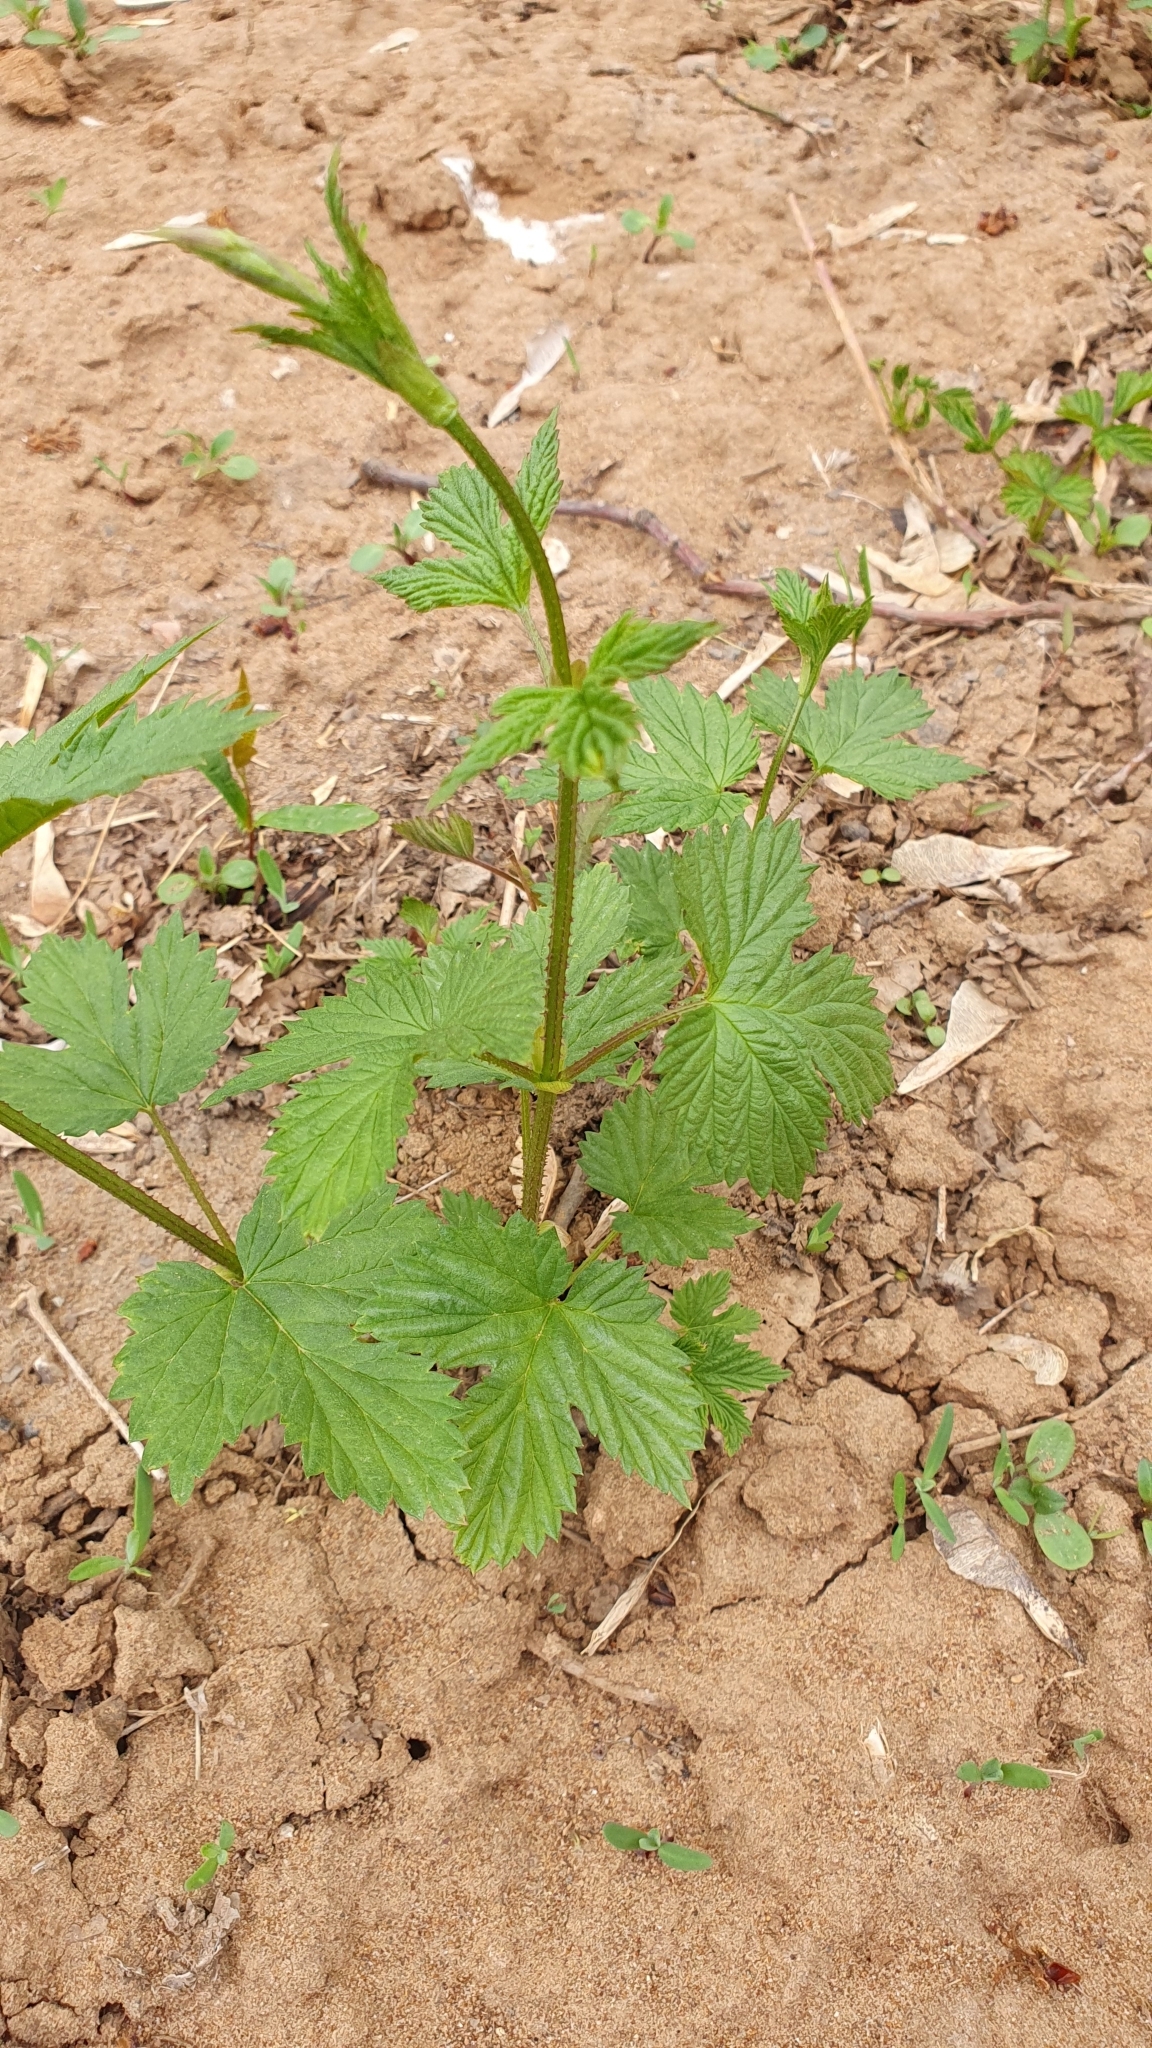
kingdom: Plantae
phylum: Tracheophyta
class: Magnoliopsida
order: Rosales
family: Cannabaceae
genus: Humulus
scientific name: Humulus lupulus
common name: Hop
